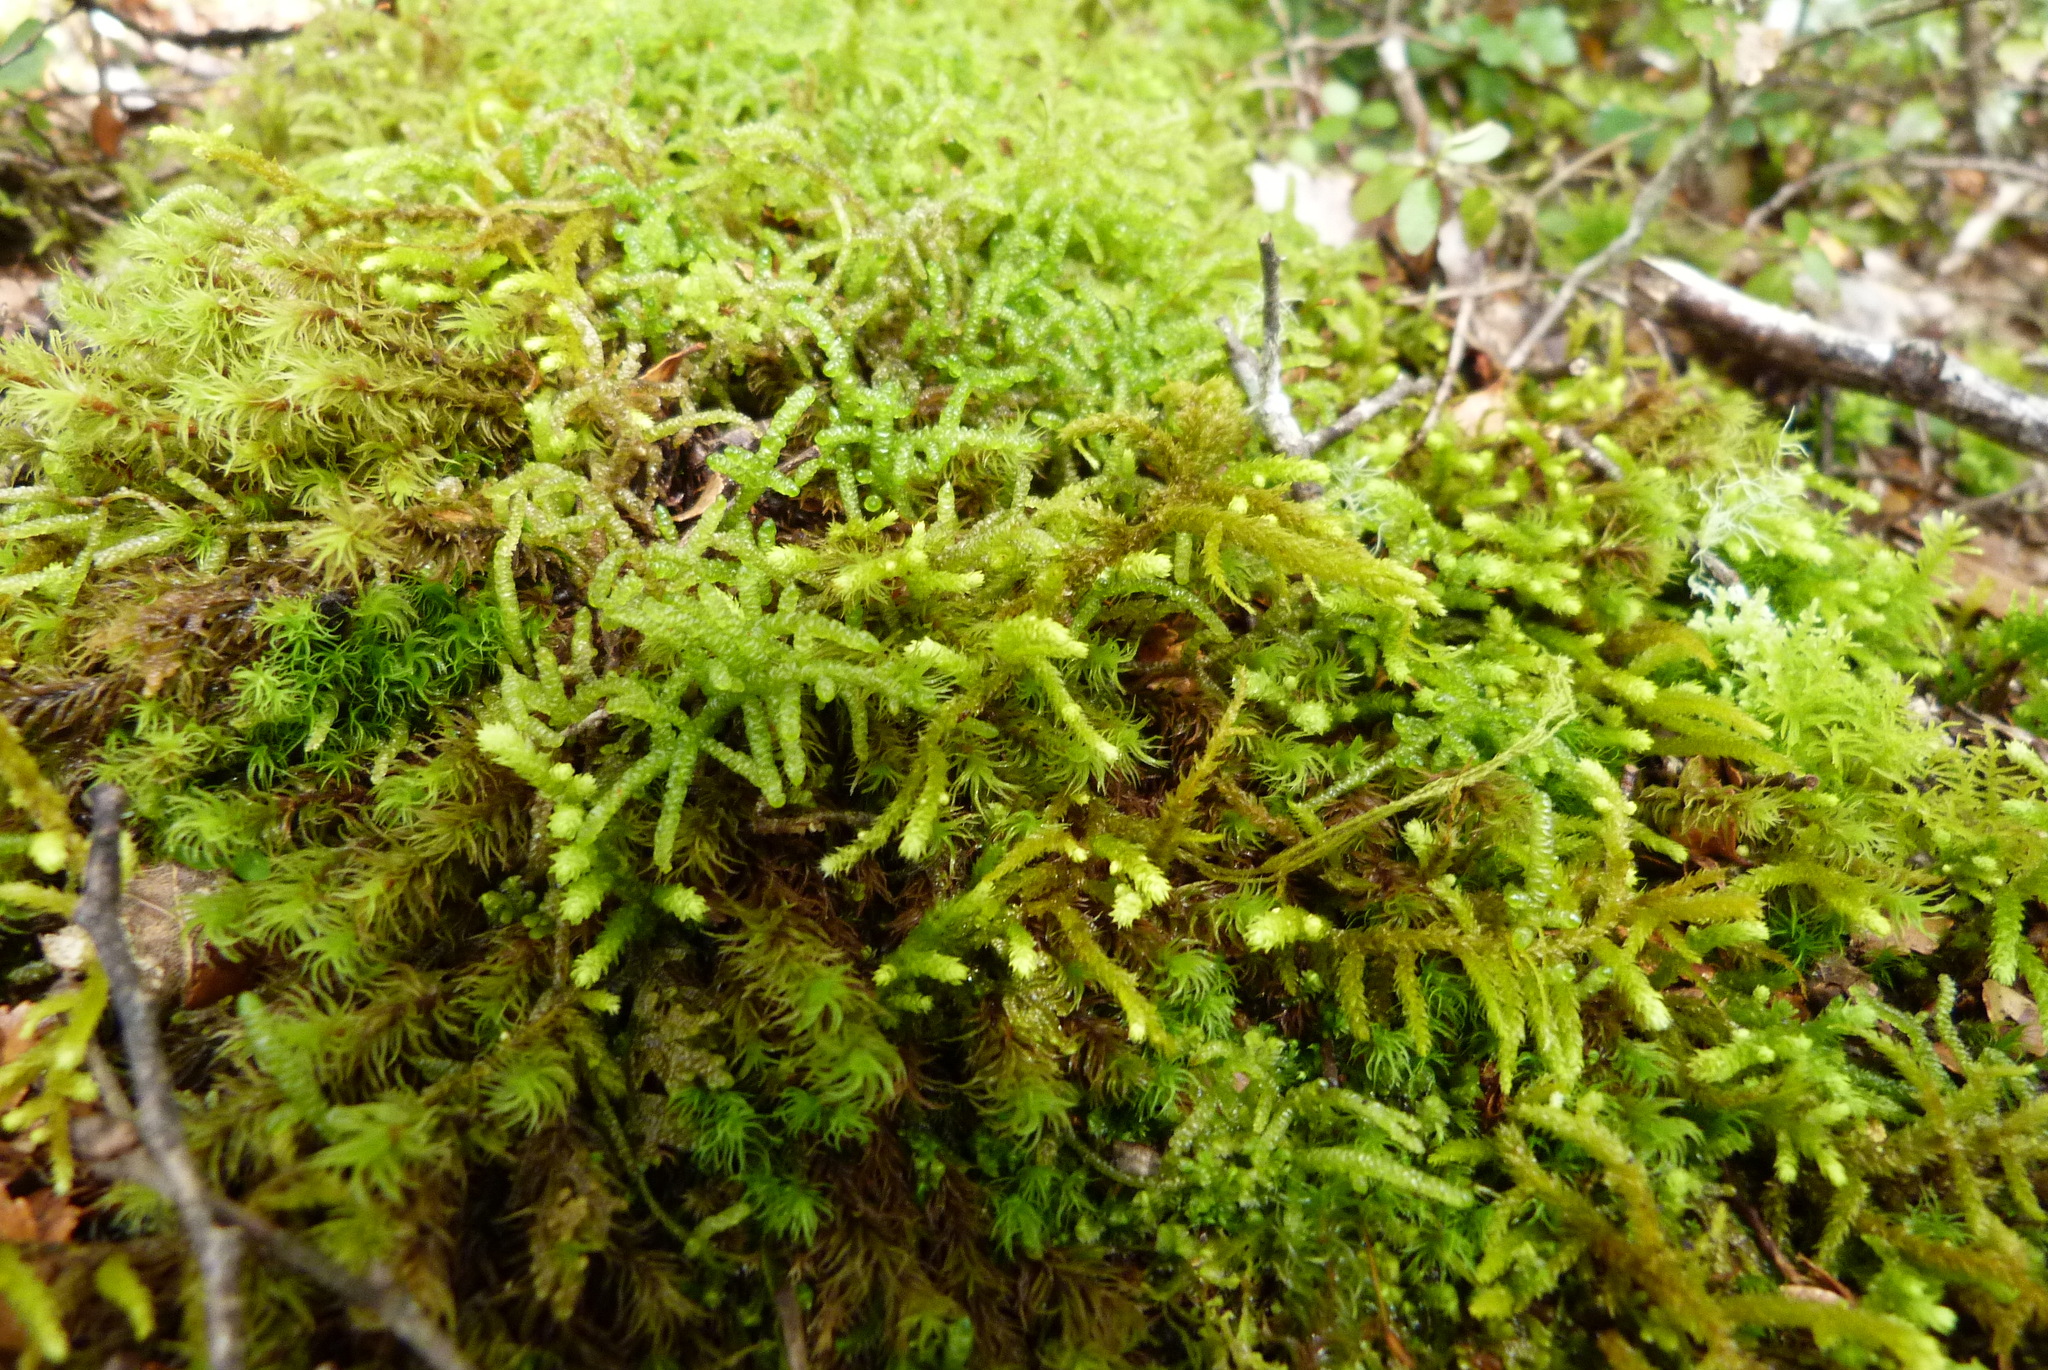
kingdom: Plantae
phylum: Bryophyta
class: Bryopsida
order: Hypnales
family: Lembophyllaceae
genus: Lembophyllum
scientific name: Lembophyllum divulsum
